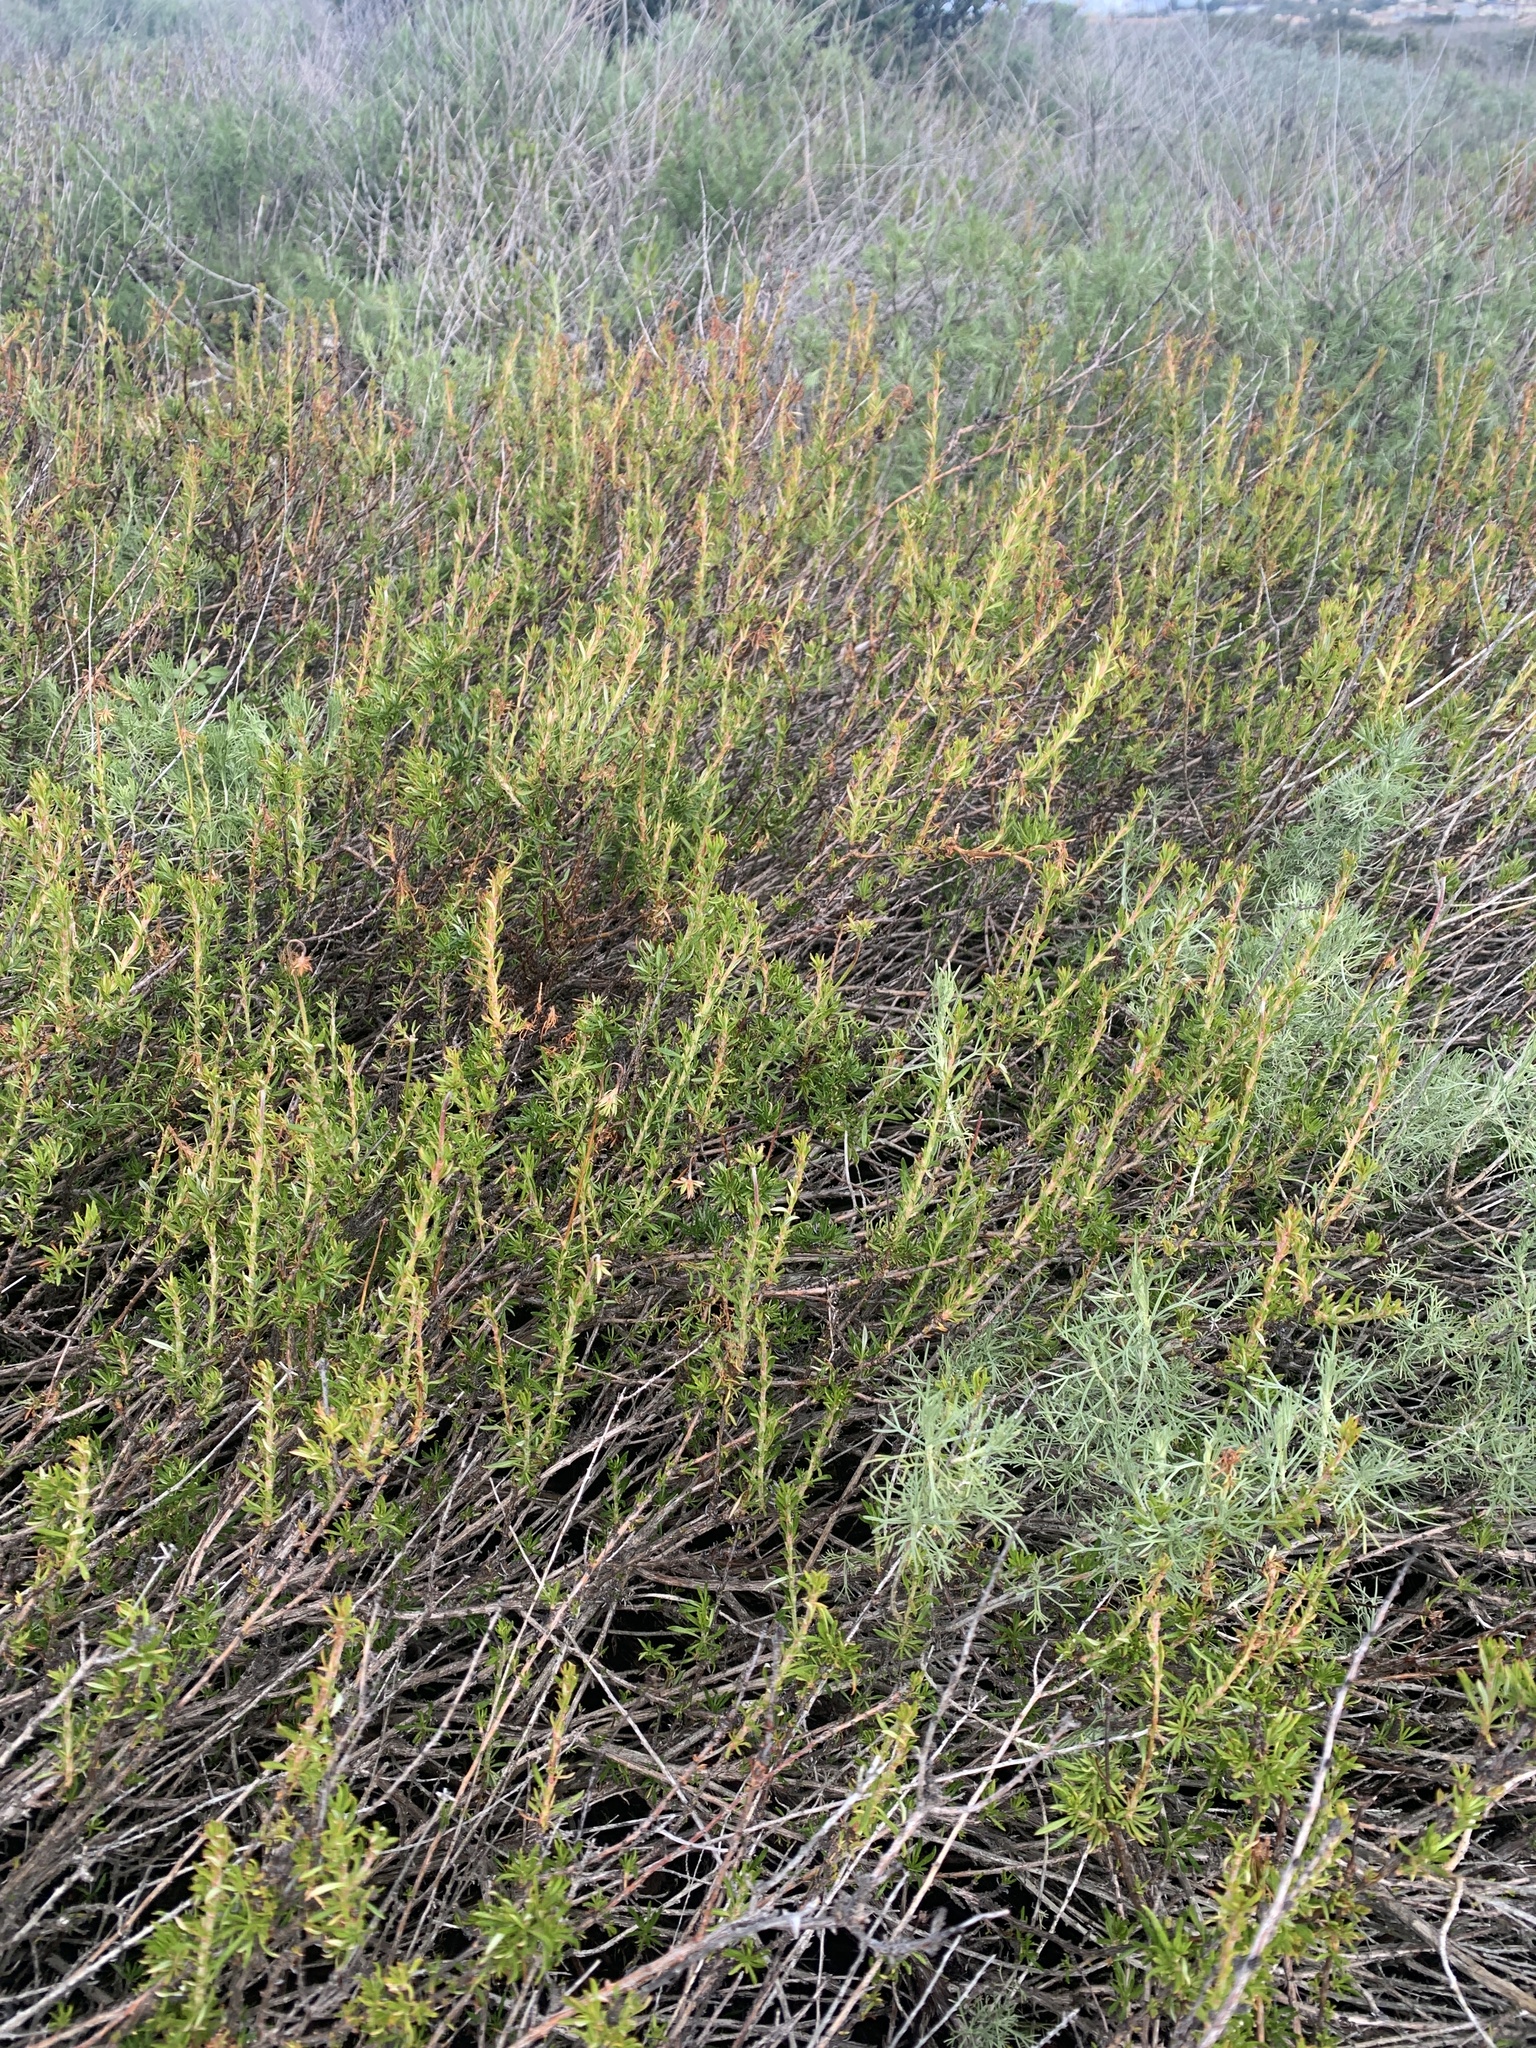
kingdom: Plantae
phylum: Tracheophyta
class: Magnoliopsida
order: Caryophyllales
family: Polygonaceae
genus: Eriogonum
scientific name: Eriogonum fasciculatum
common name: California wild buckwheat
